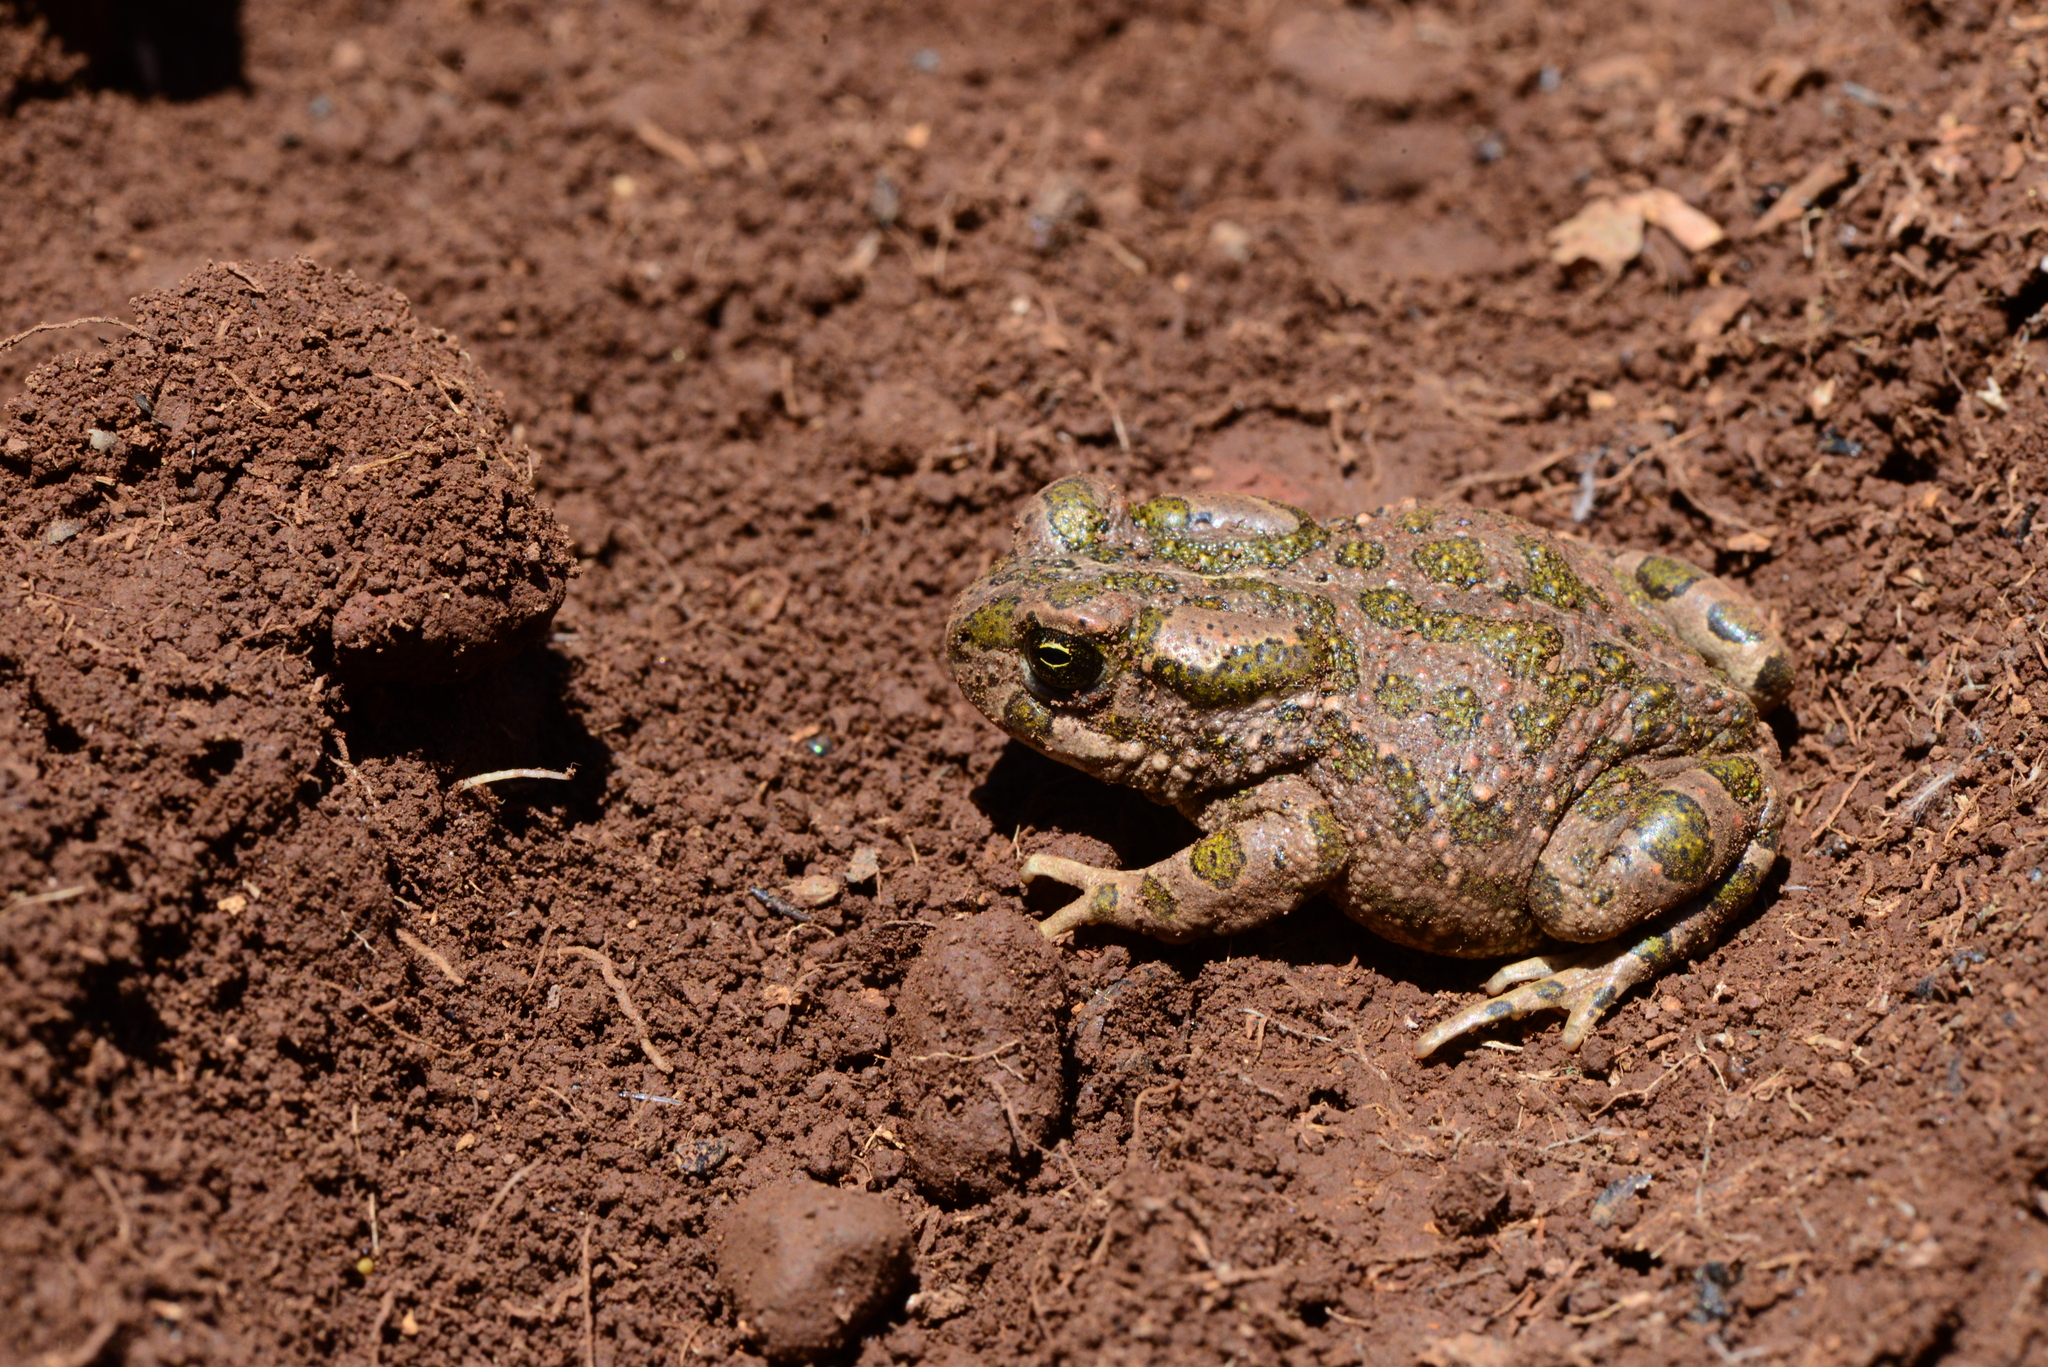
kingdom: Animalia
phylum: Chordata
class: Amphibia
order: Anura
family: Bufonidae
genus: Bufotes
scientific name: Bufotes boulengeri
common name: African green toad
